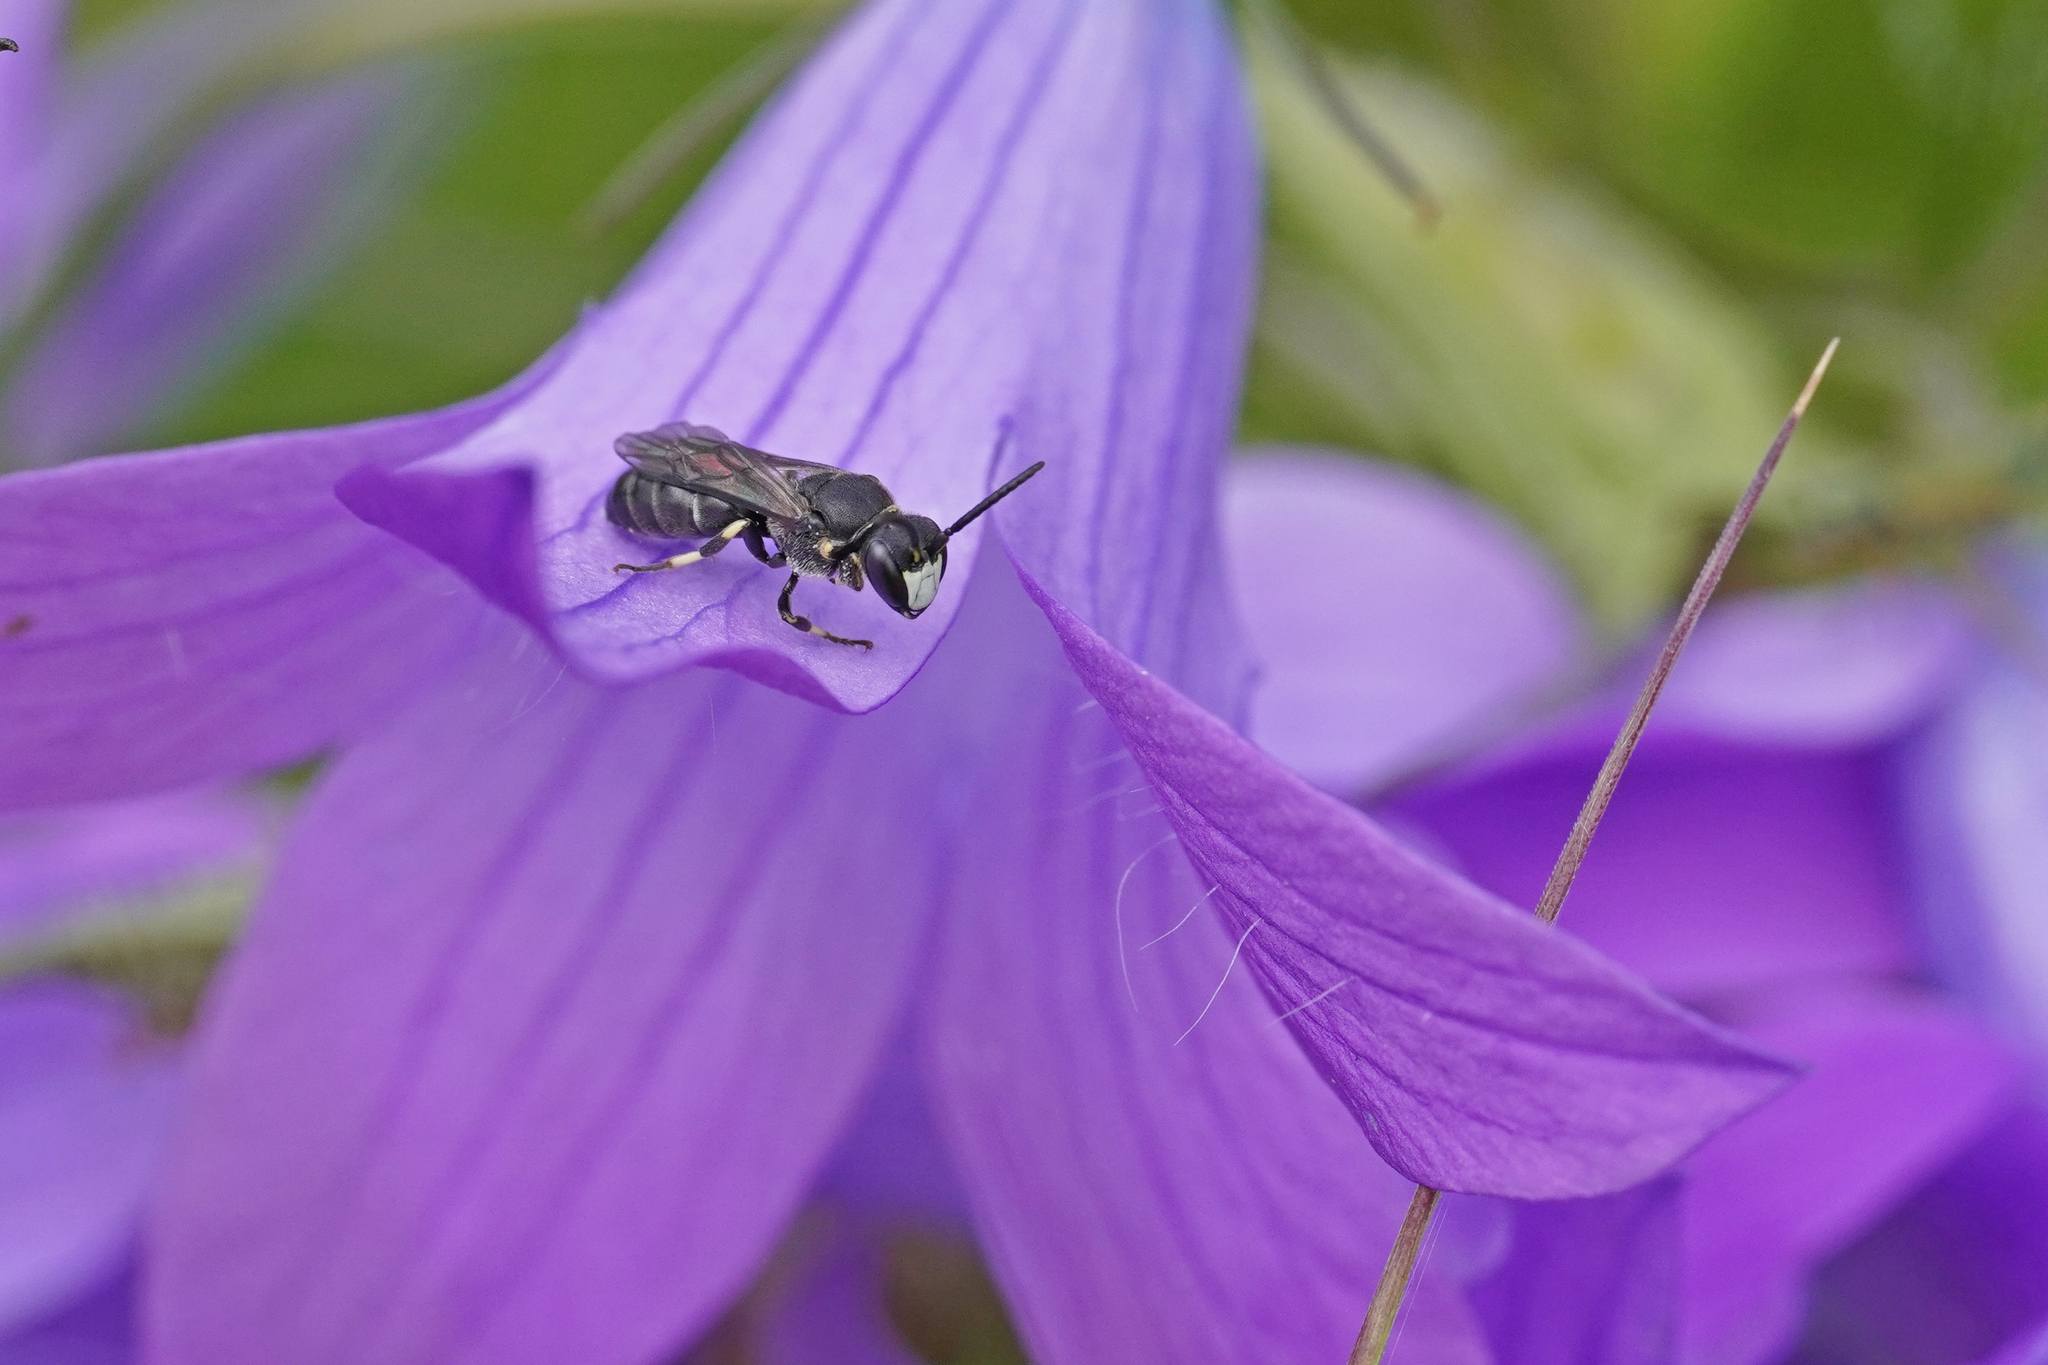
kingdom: Animalia
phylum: Arthropoda
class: Insecta
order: Hymenoptera
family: Colletidae
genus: Hylaeus
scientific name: Hylaeus confusus
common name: White-jawed yellow-face bee
